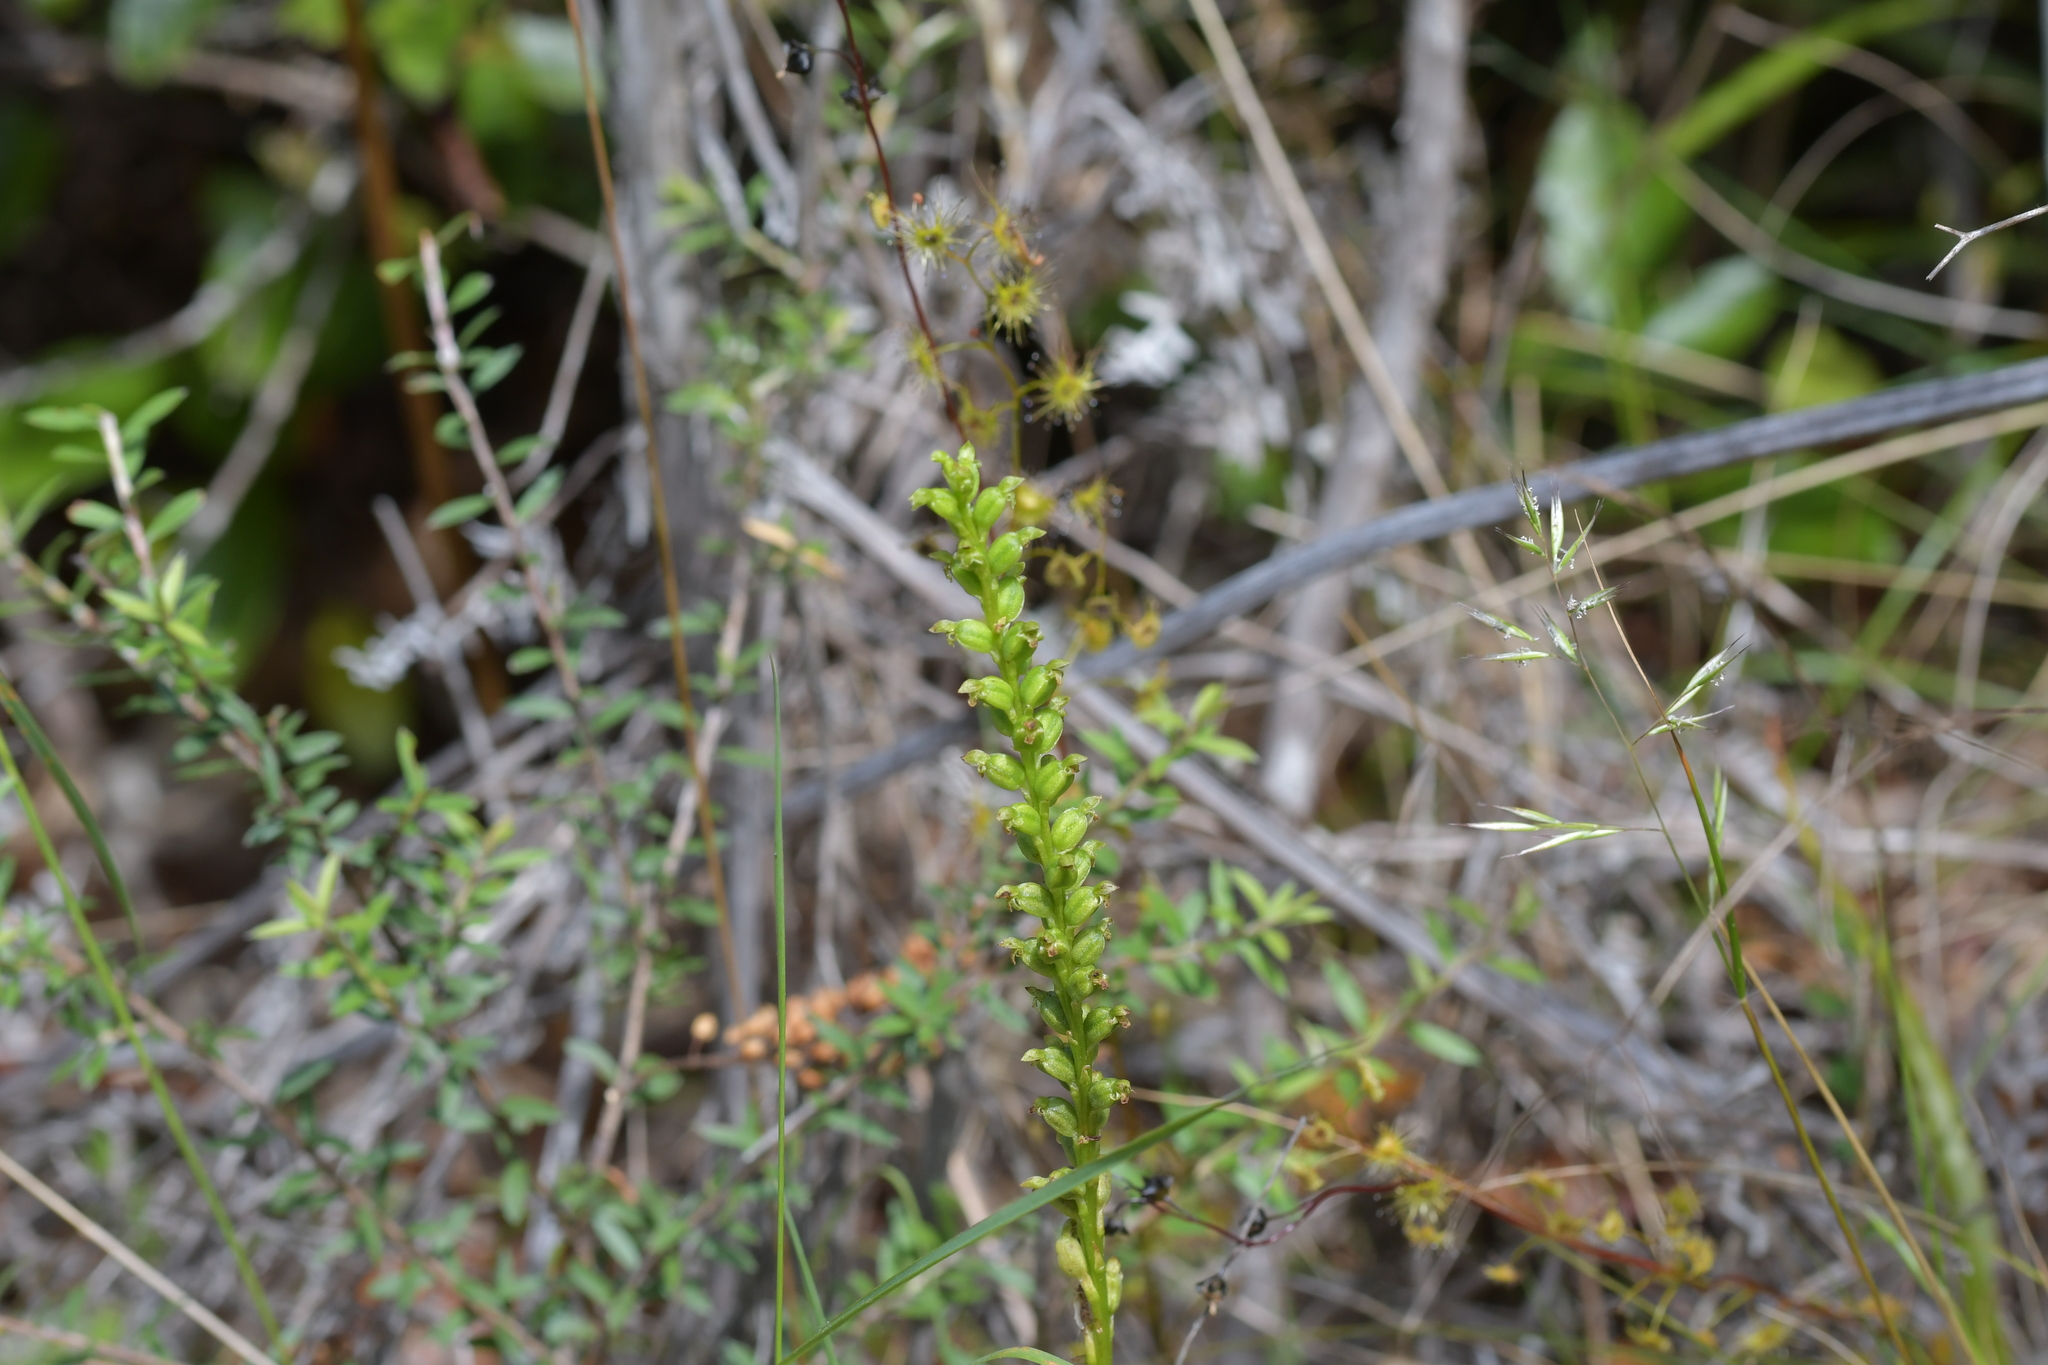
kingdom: Plantae
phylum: Tracheophyta
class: Liliopsida
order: Asparagales
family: Orchidaceae
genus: Microtis
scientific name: Microtis unifolia
